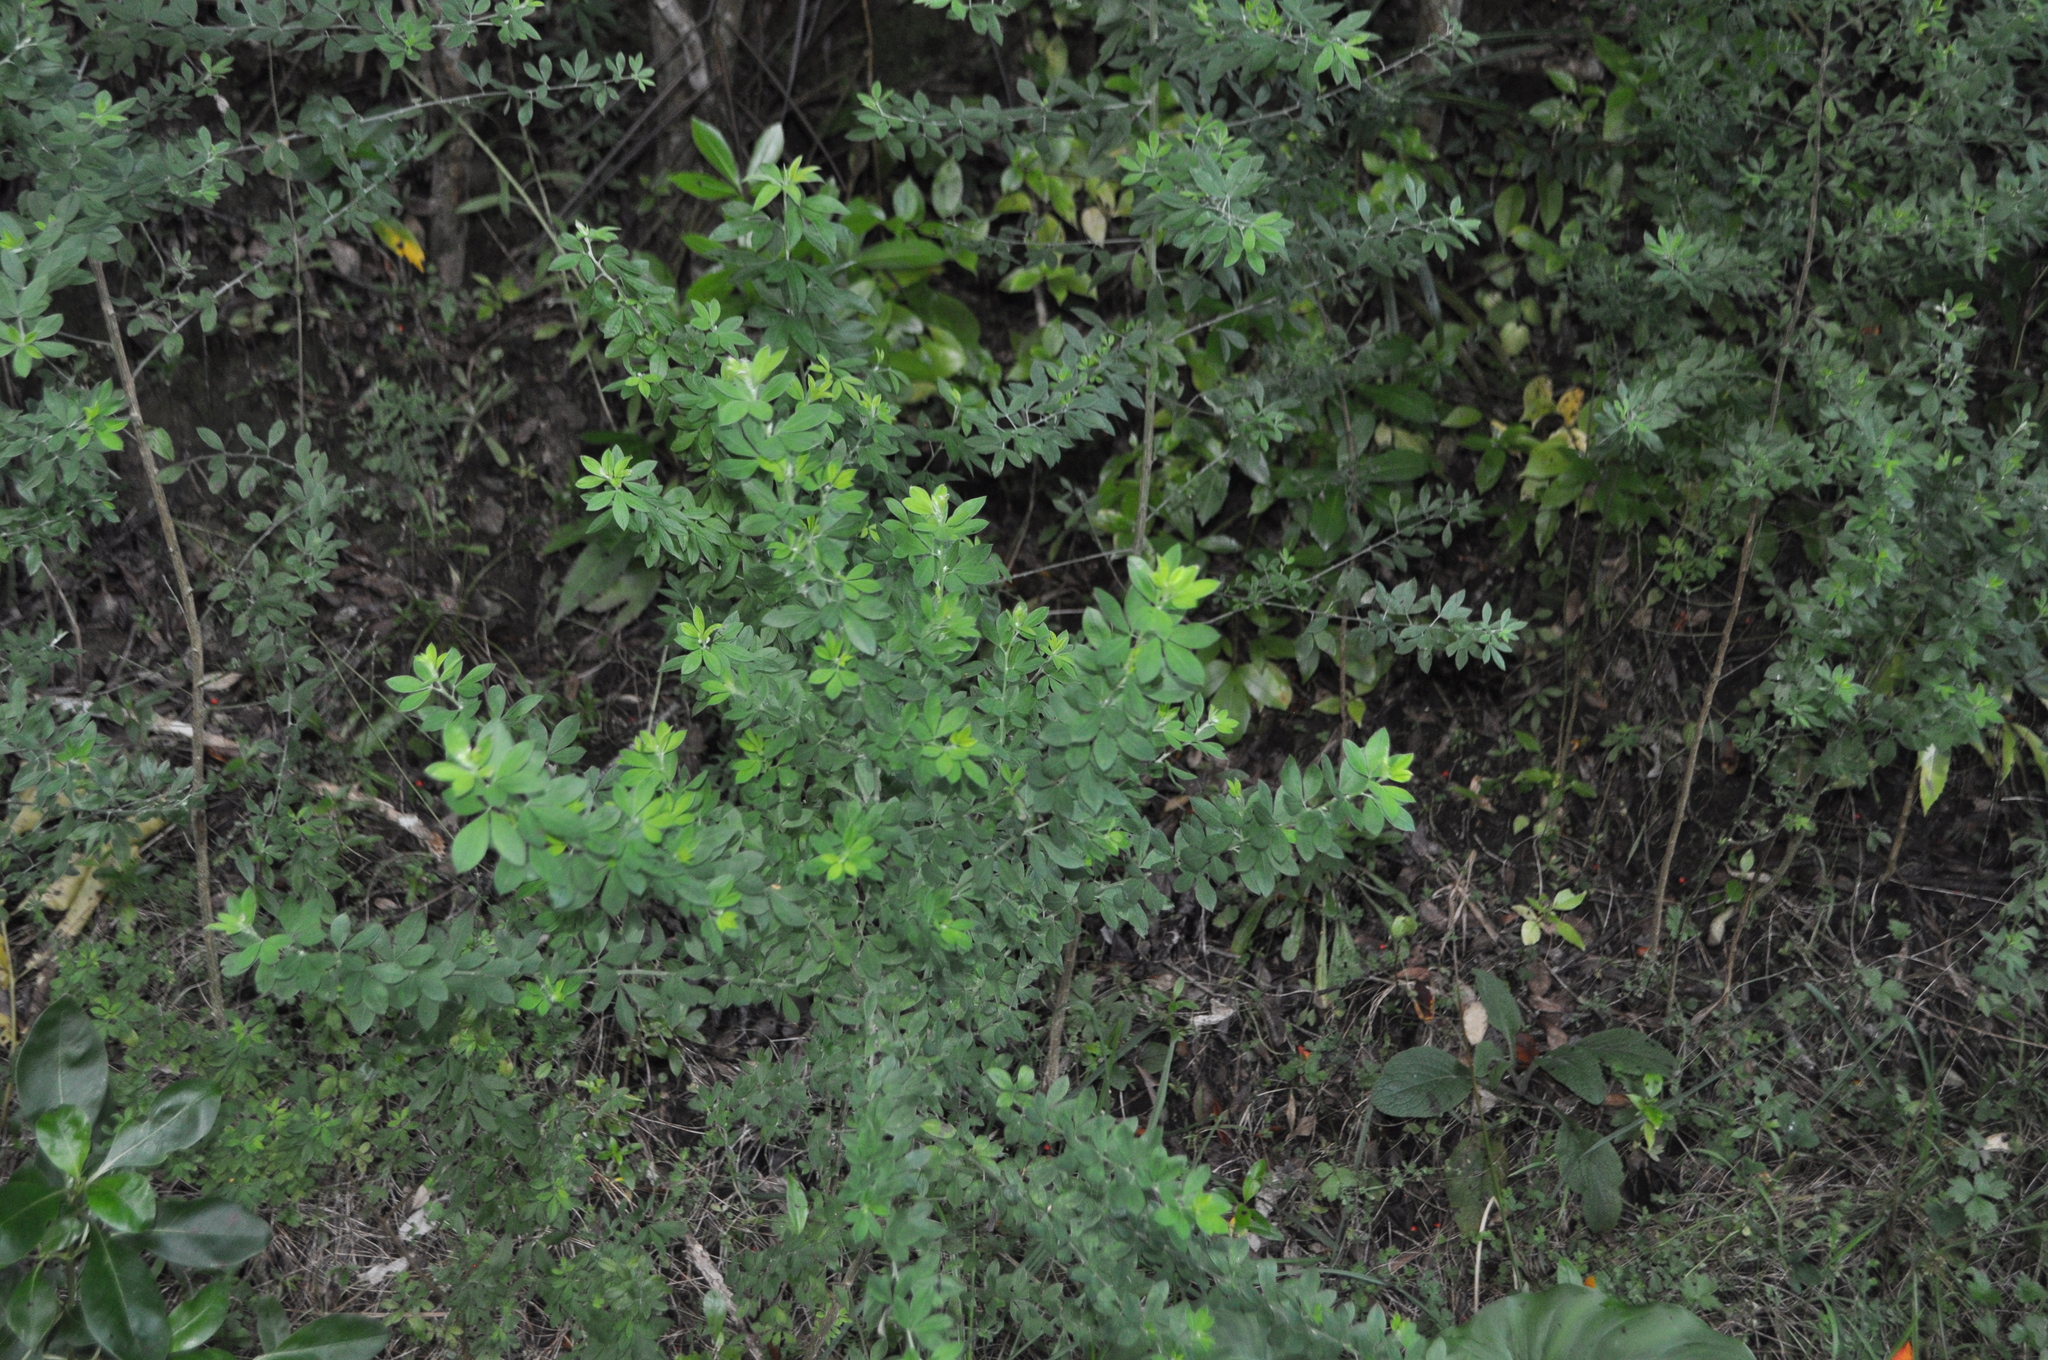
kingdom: Plantae
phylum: Tracheophyta
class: Magnoliopsida
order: Fabales
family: Fabaceae
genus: Genista
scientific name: Genista monspessulana
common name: Montpellier broom
